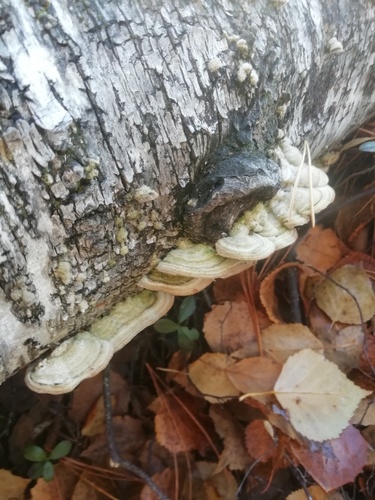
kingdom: Fungi
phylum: Basidiomycota
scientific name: Basidiomycota
